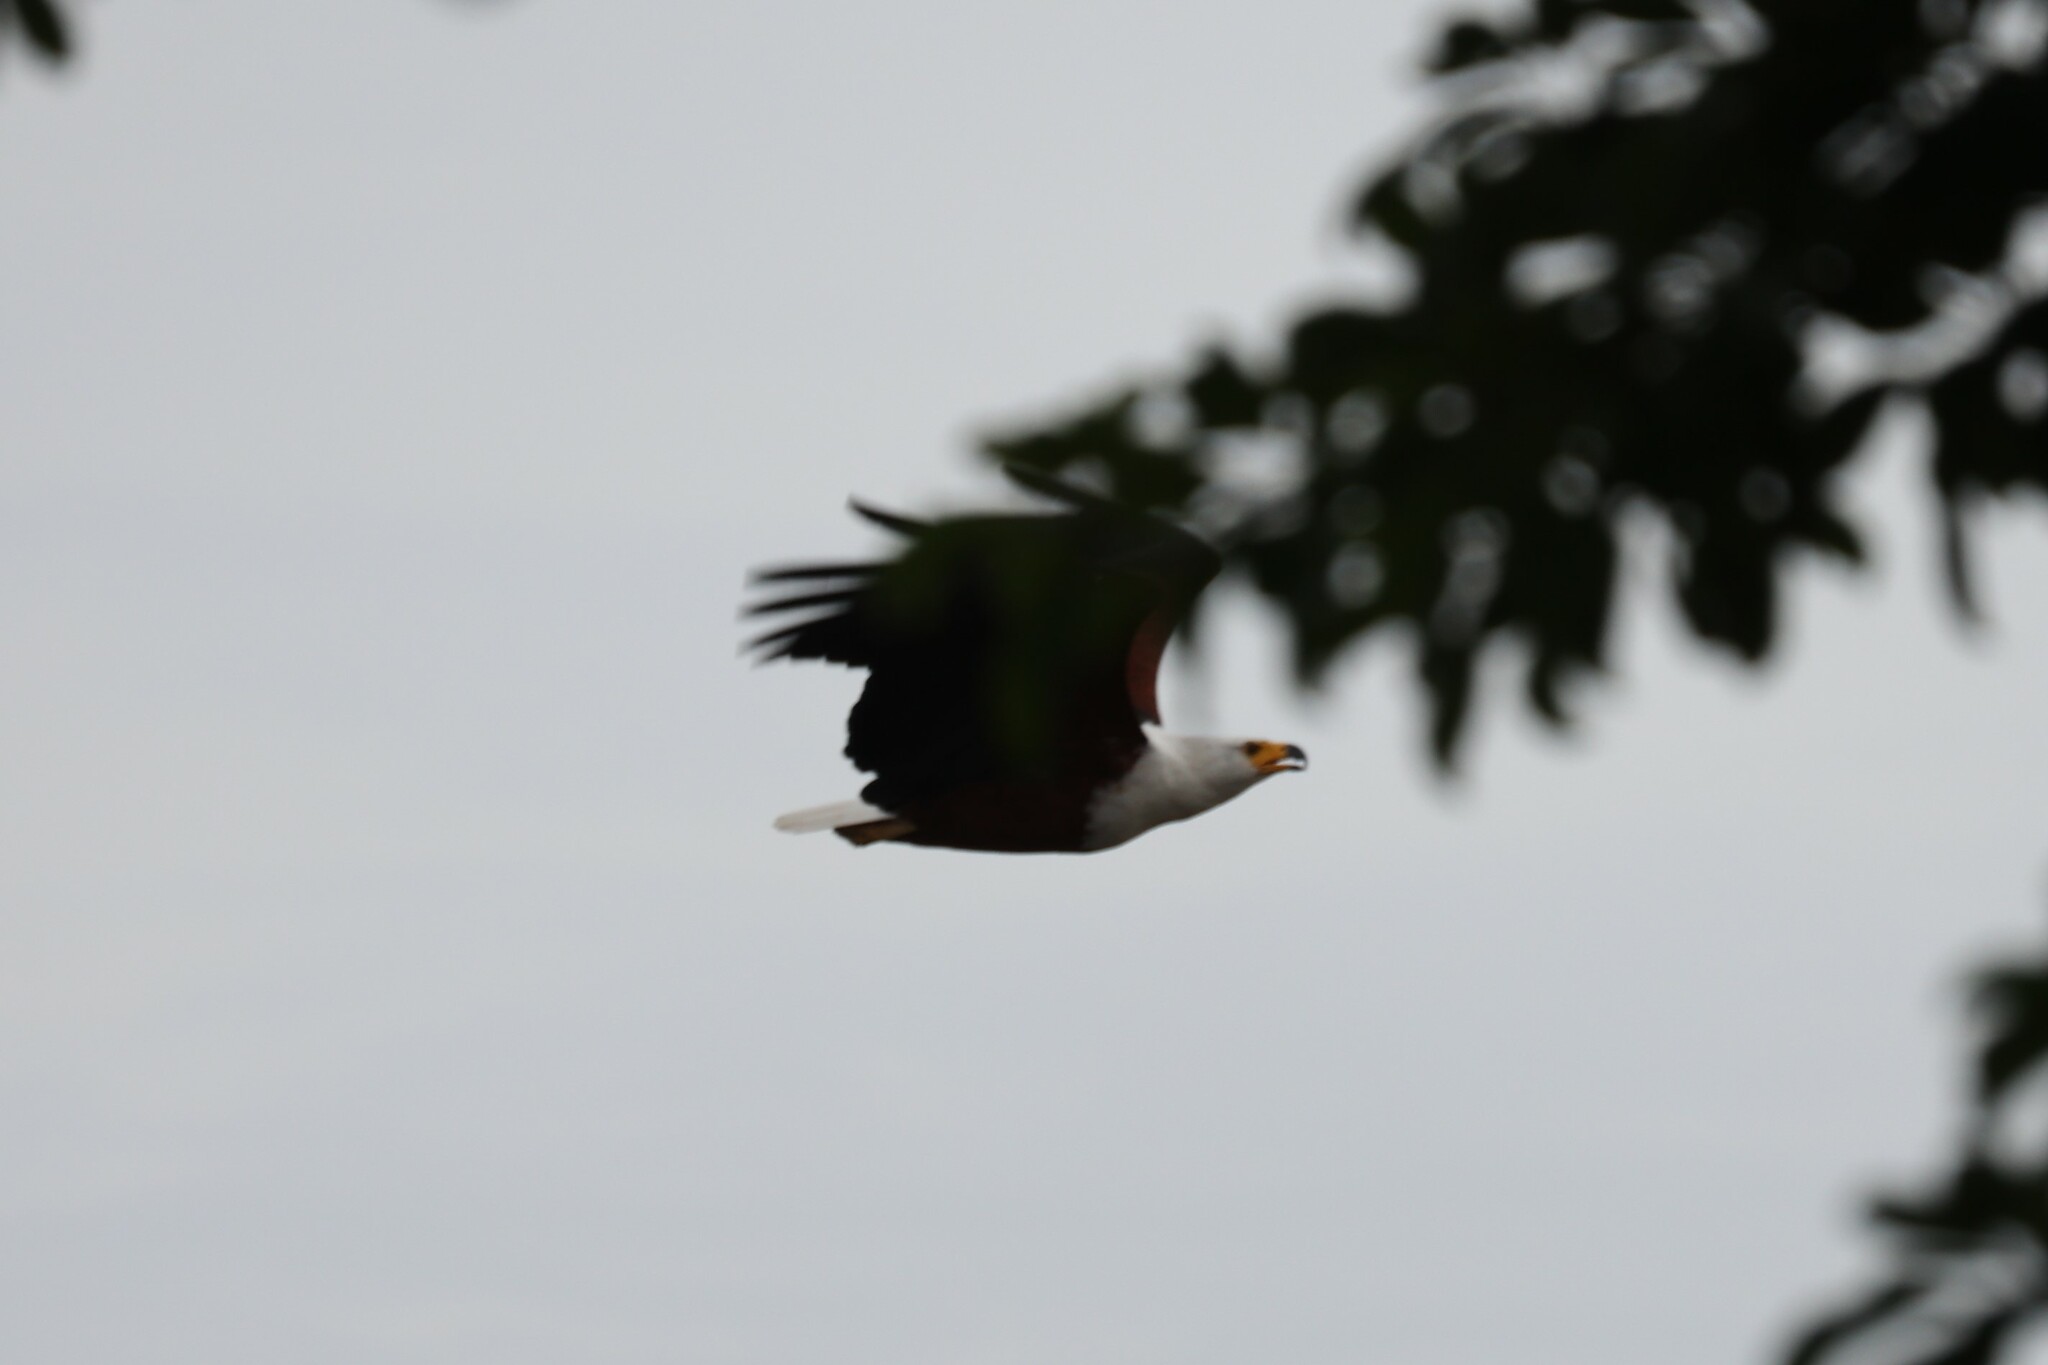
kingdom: Animalia
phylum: Chordata
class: Aves
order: Accipitriformes
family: Accipitridae
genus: Haliaeetus
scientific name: Haliaeetus vocifer
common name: African fish eagle
